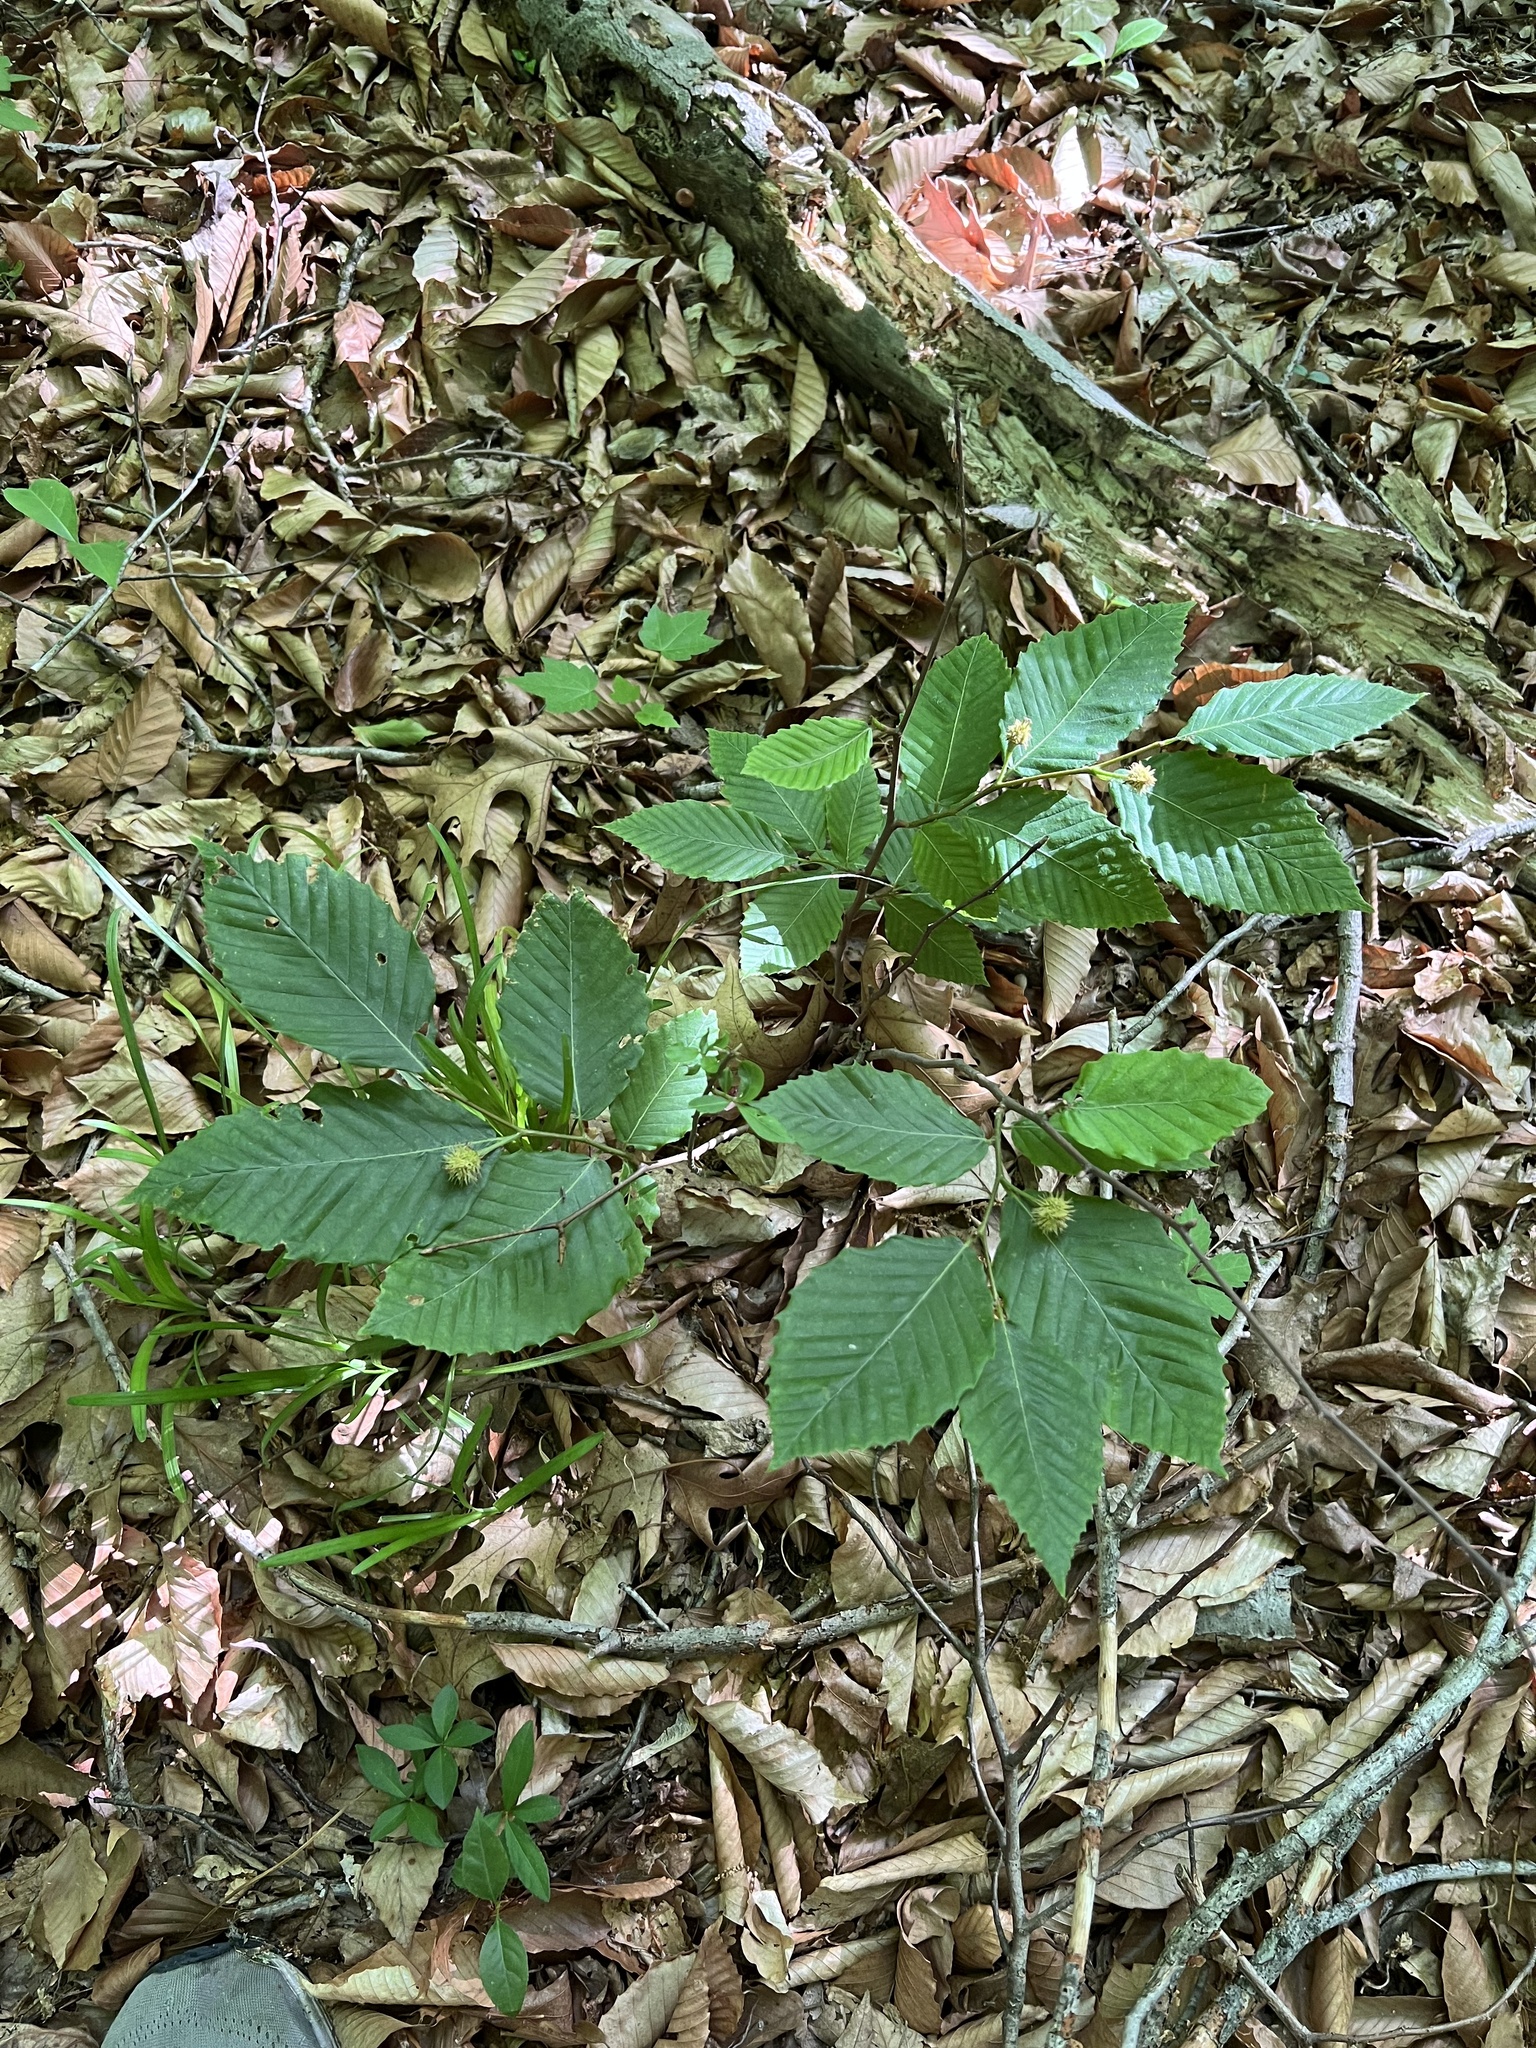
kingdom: Plantae
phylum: Tracheophyta
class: Magnoliopsida
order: Fagales
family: Fagaceae
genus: Fagus
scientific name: Fagus grandifolia
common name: American beech
